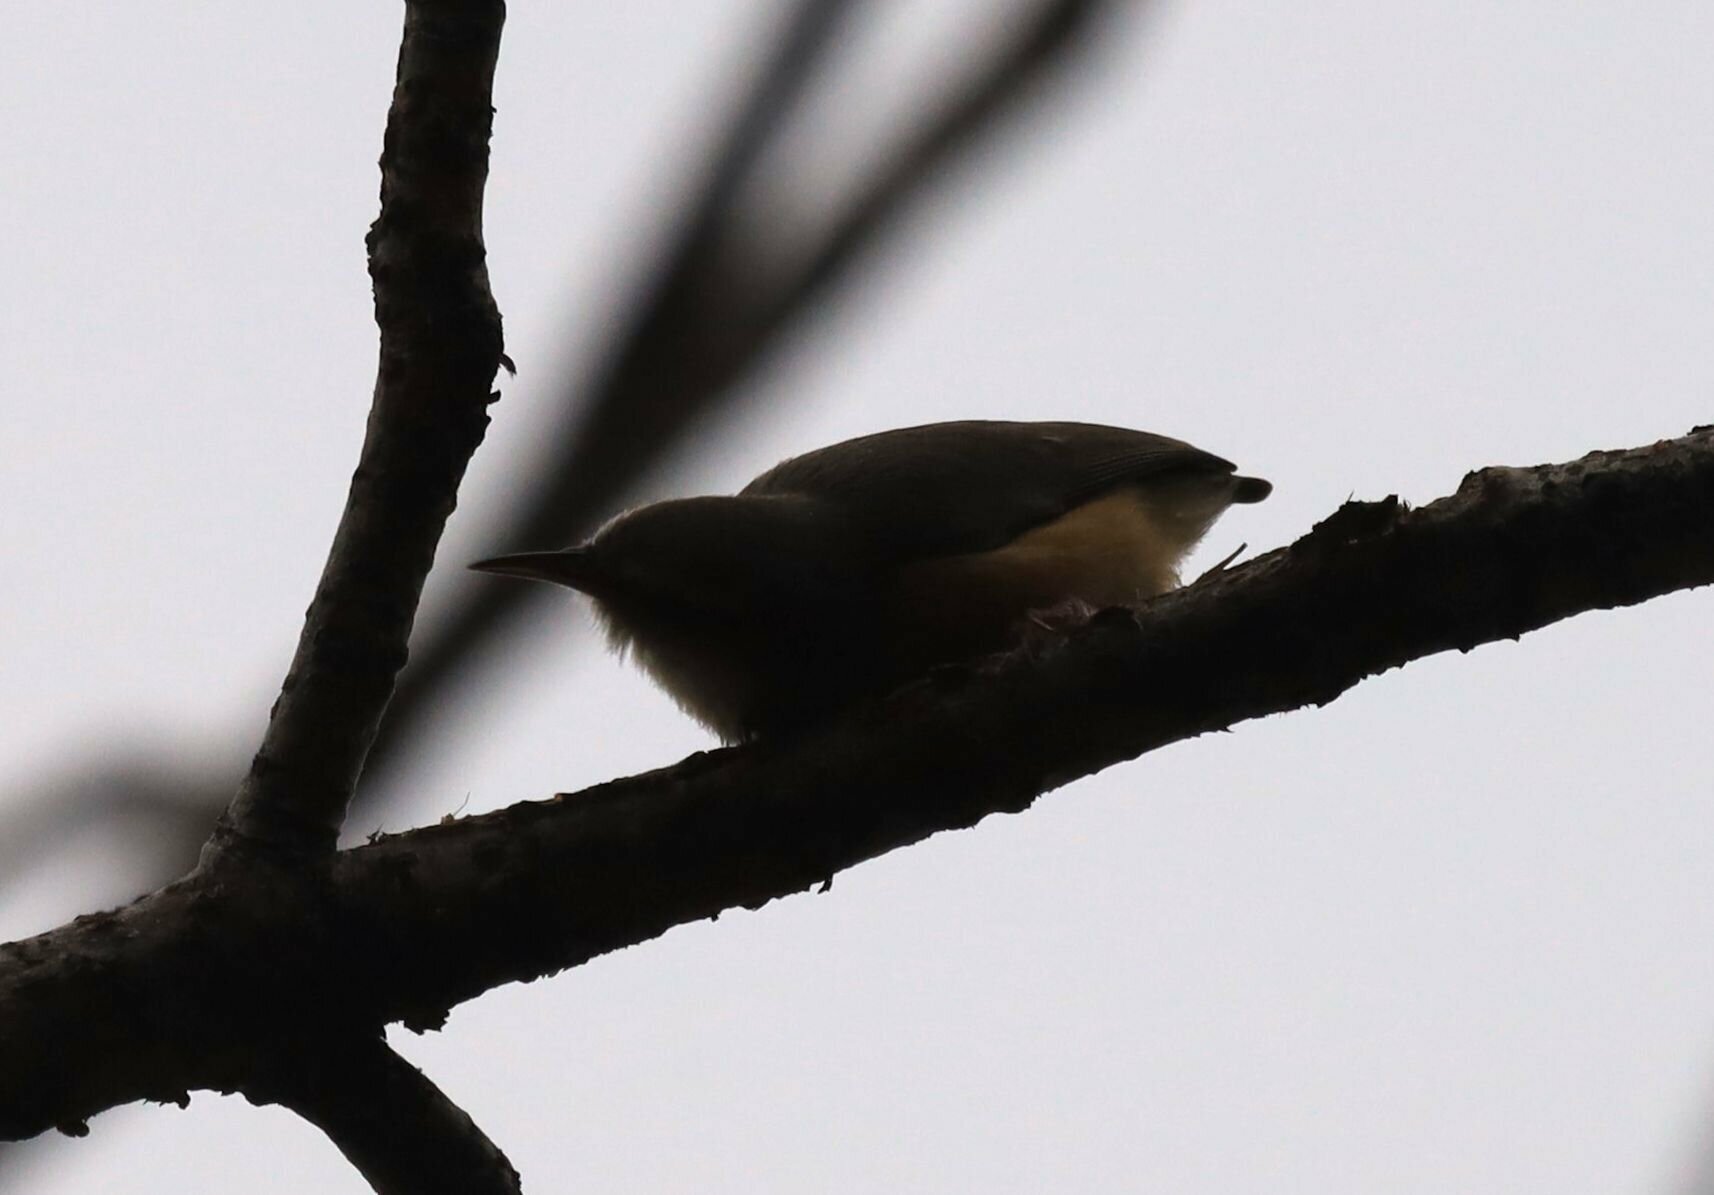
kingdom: Animalia
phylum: Chordata
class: Aves
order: Passeriformes
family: Macrosphenidae
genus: Sylvietta
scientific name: Sylvietta rufescens
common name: Long-billed crombec
